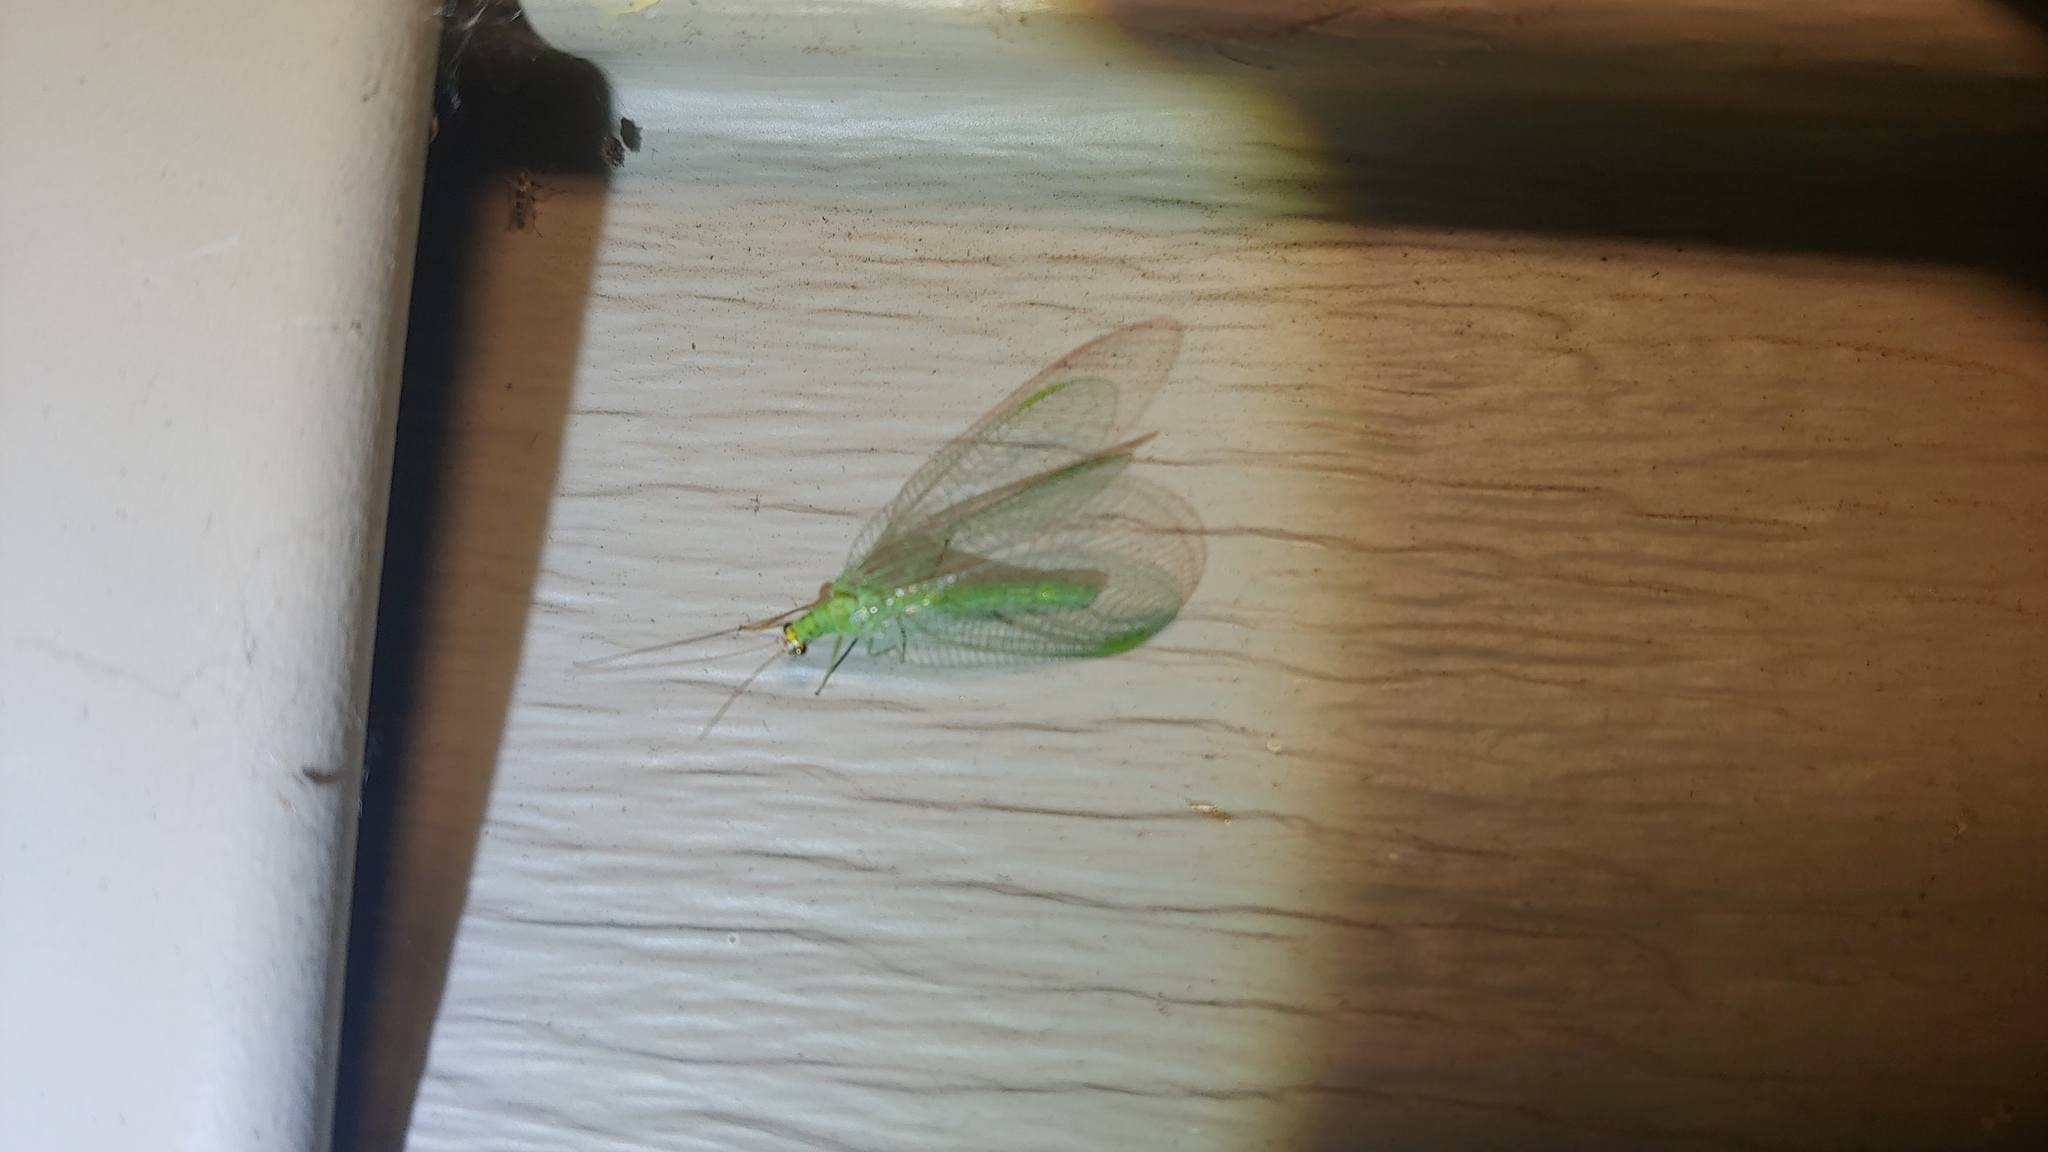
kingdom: Animalia
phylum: Arthropoda
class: Insecta
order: Neuroptera
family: Chrysopidae
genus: Chrysopa
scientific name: Chrysopa oculata
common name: Golden-eyed lacewing
